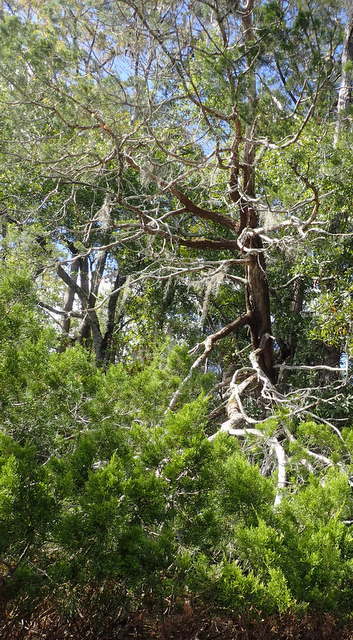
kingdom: Plantae
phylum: Tracheophyta
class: Pinopsida
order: Pinales
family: Cupressaceae
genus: Juniperus
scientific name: Juniperus virginiana
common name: Red juniper
